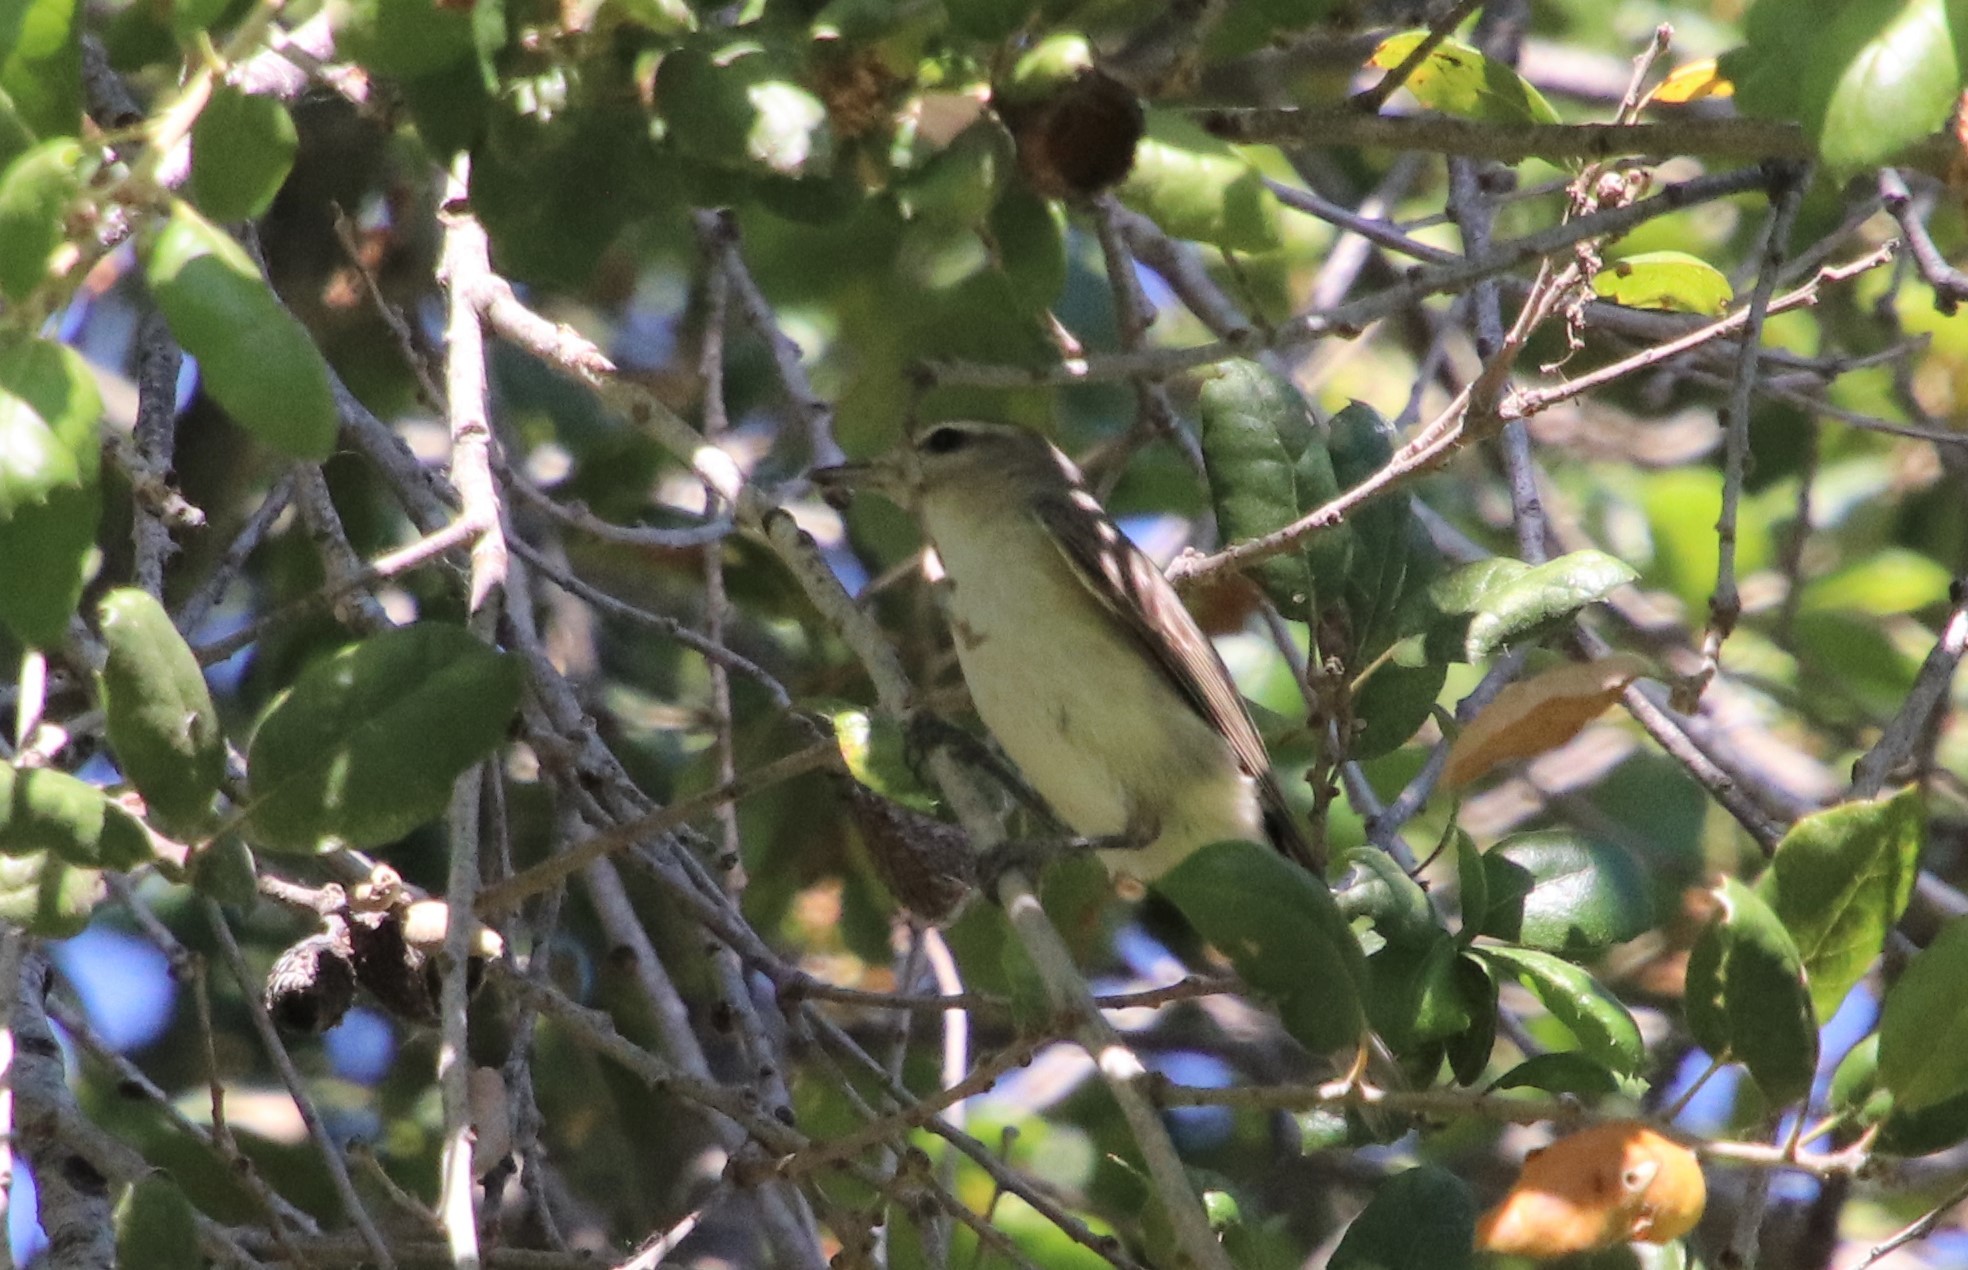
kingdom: Animalia
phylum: Chordata
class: Aves
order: Passeriformes
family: Vireonidae
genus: Vireo
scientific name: Vireo gilvus
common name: Warbling vireo
